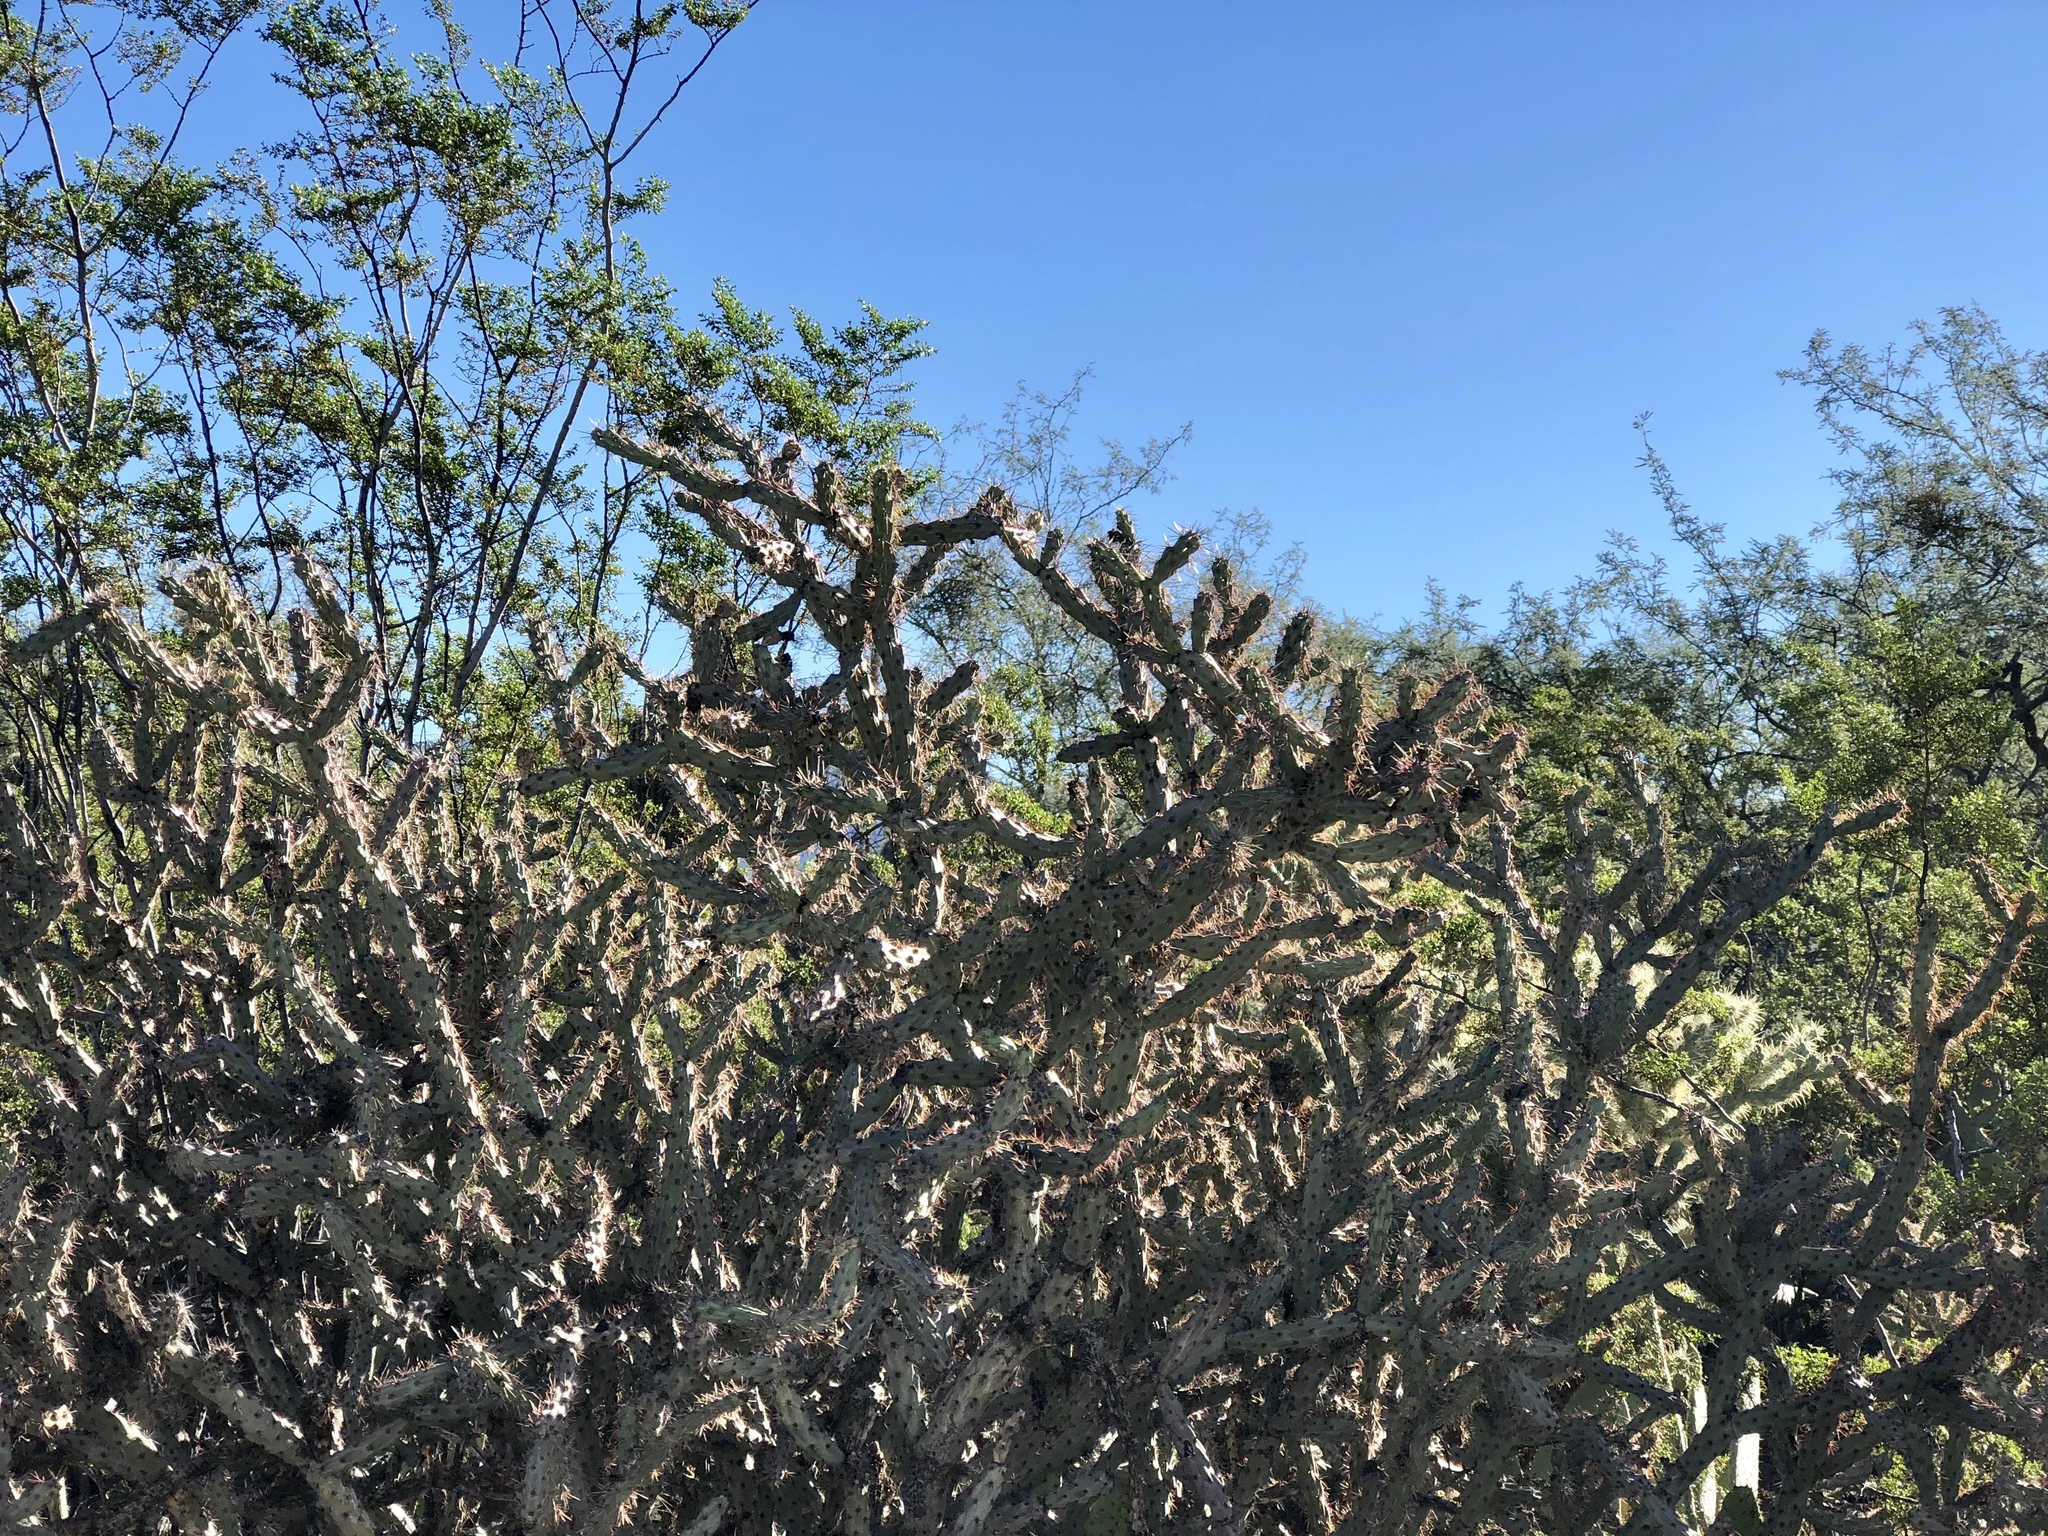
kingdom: Plantae
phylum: Tracheophyta
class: Magnoliopsida
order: Caryophyllales
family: Cactaceae
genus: Cylindropuntia
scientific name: Cylindropuntia acanthocarpa
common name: Buckhorn cholla
